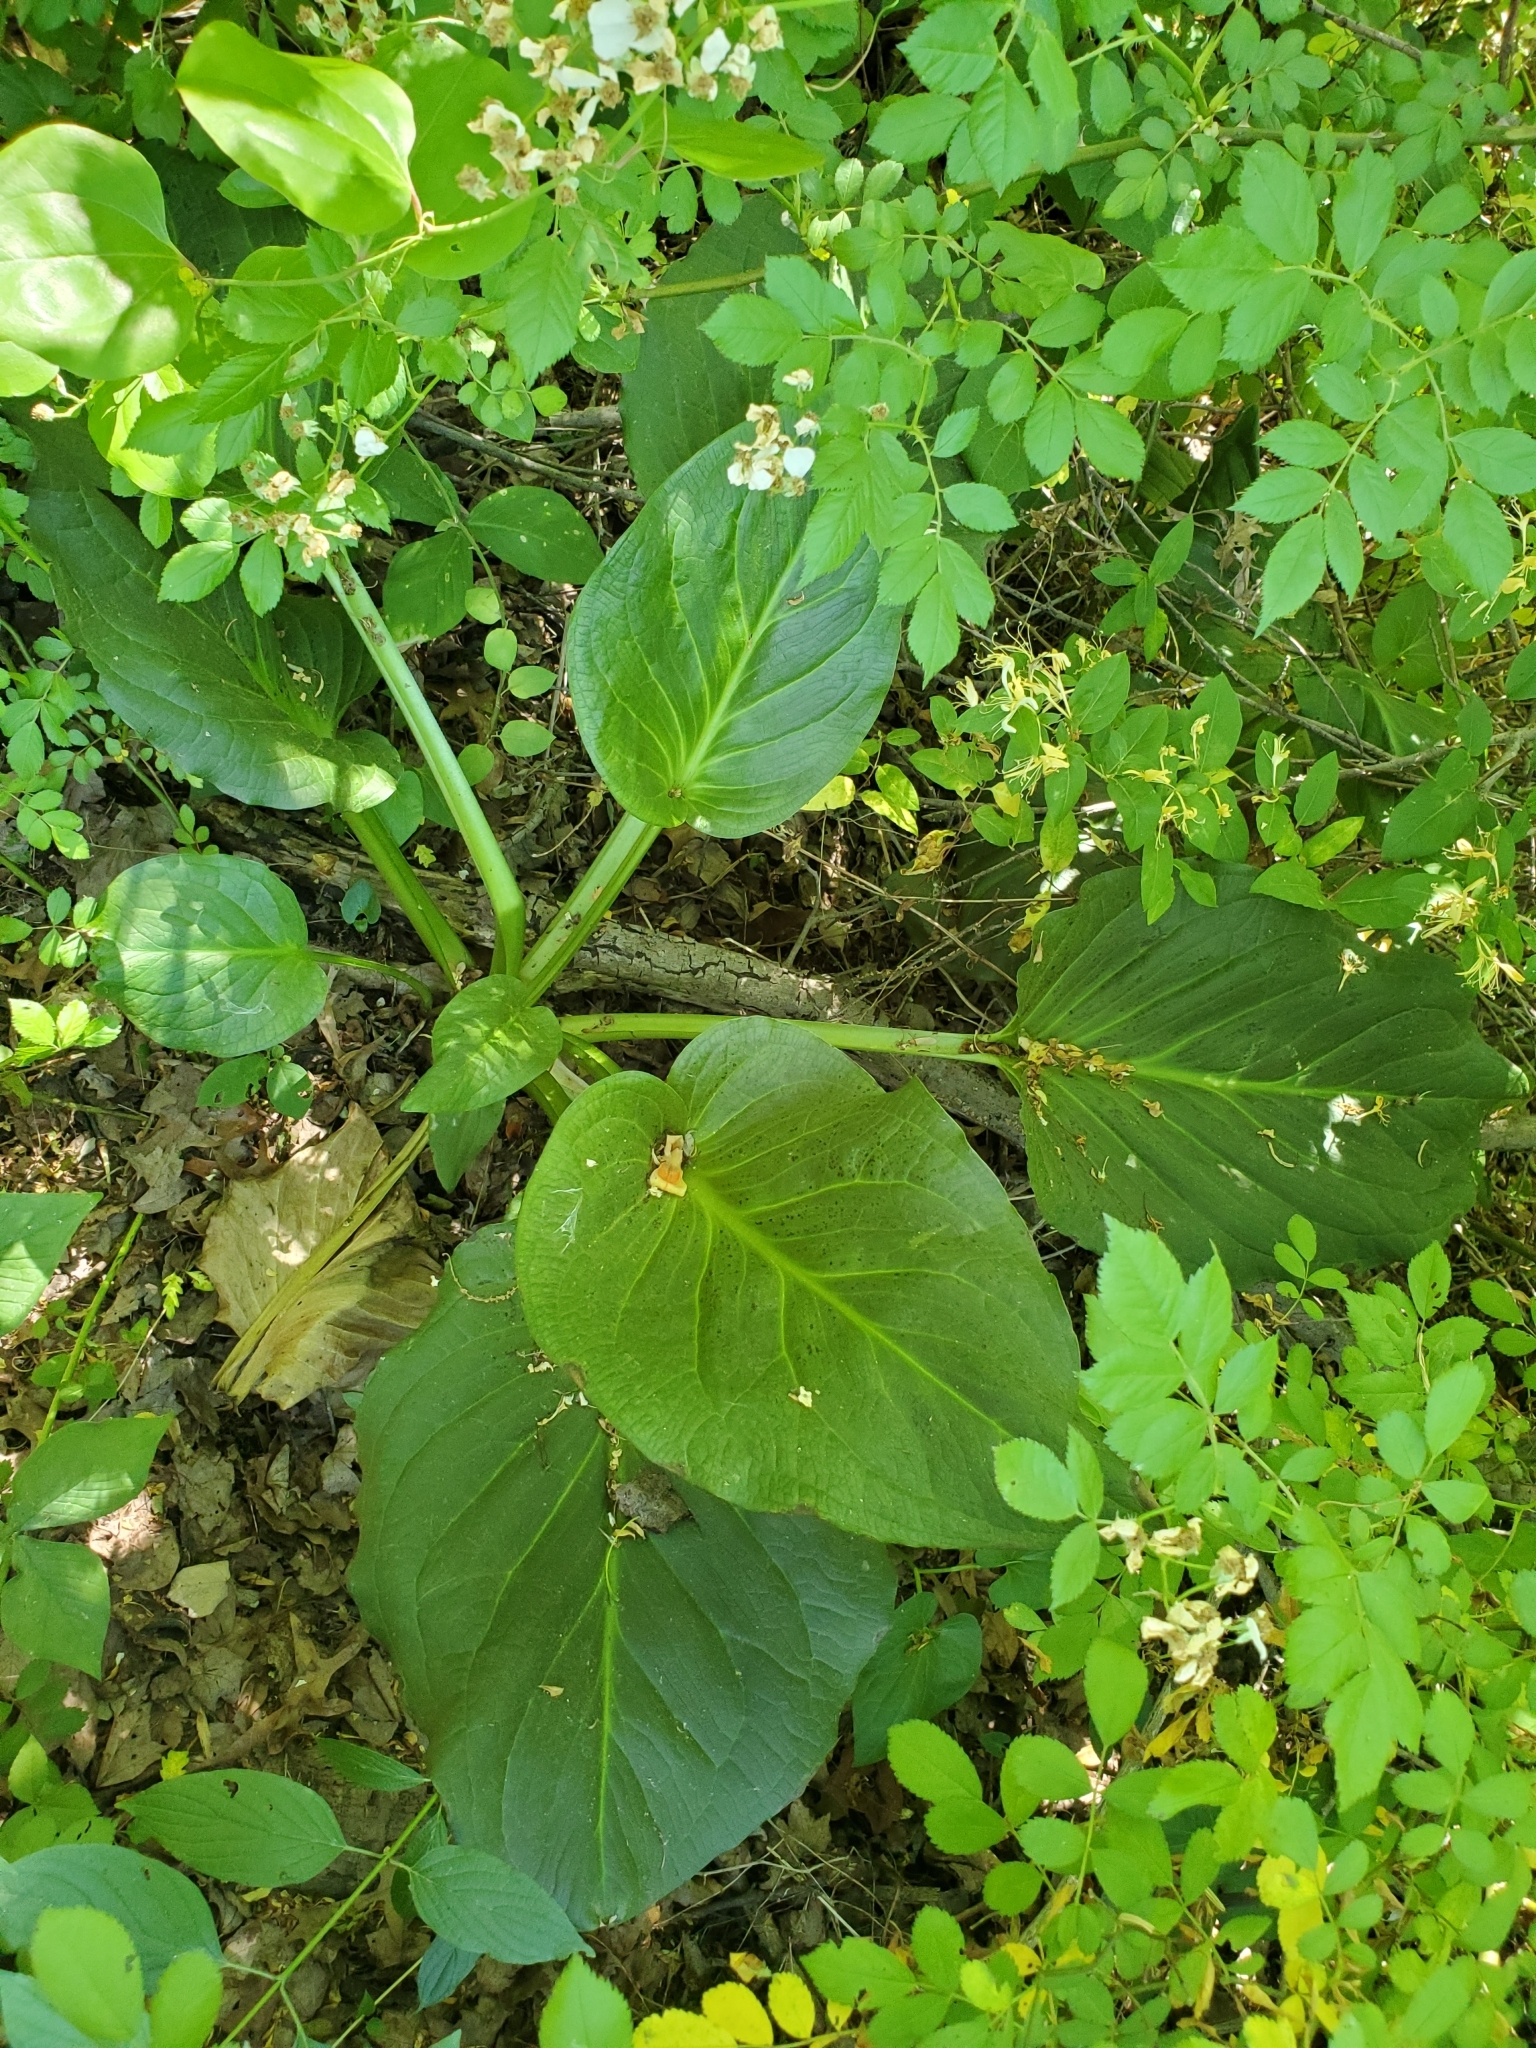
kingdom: Plantae
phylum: Tracheophyta
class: Liliopsida
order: Alismatales
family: Araceae
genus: Symplocarpus
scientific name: Symplocarpus foetidus
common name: Eastern skunk cabbage
